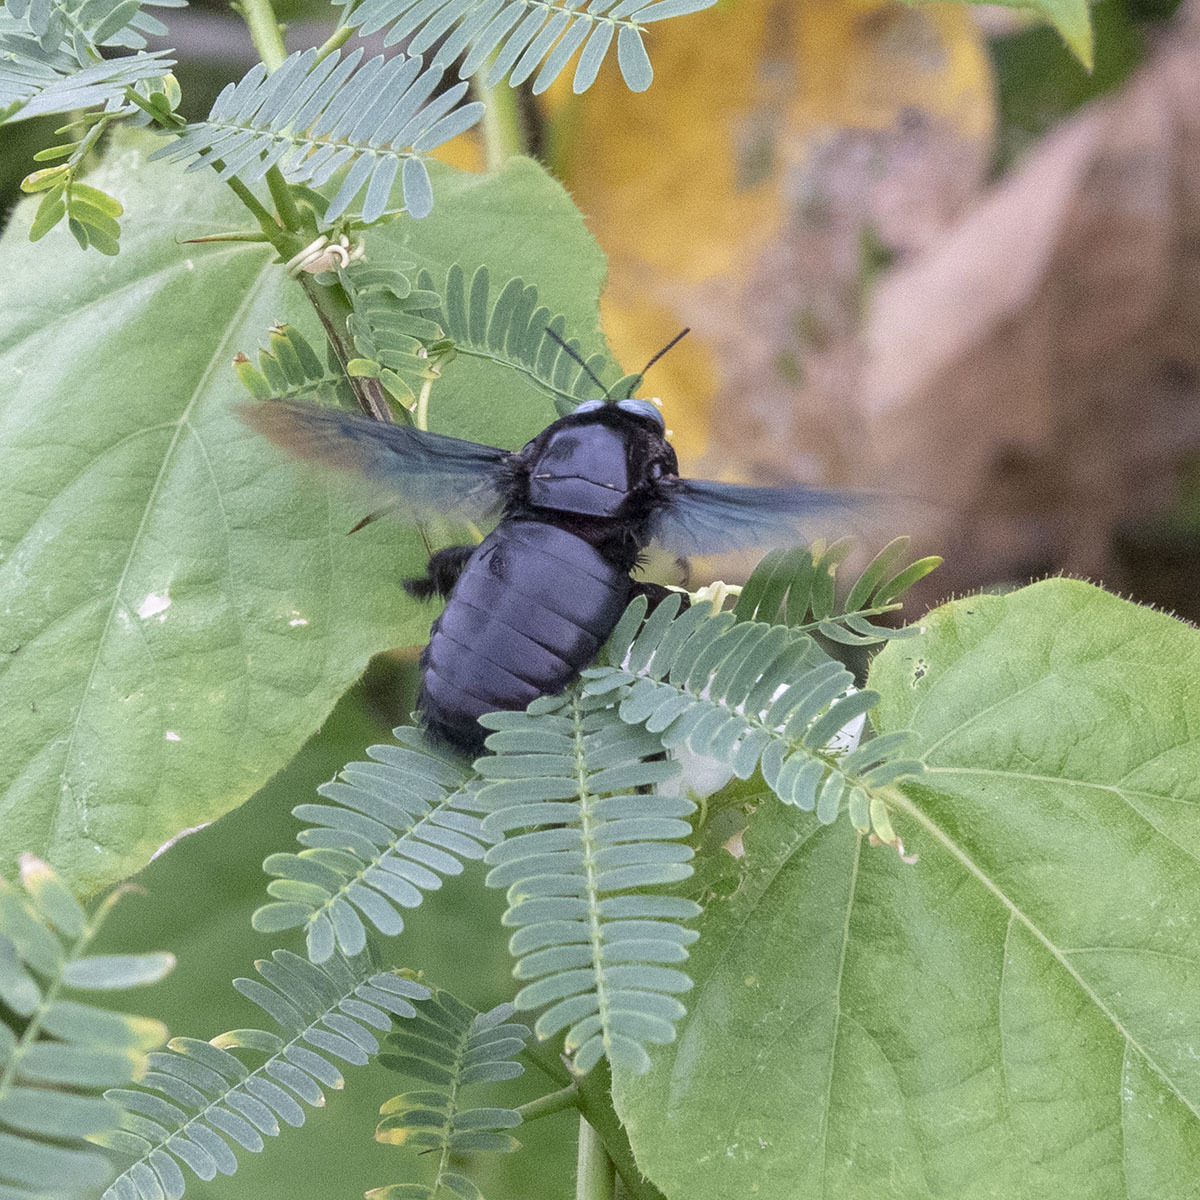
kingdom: Animalia
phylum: Arthropoda
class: Insecta
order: Hymenoptera
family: Apidae
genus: Xylocopa
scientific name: Xylocopa tenuiscapa
